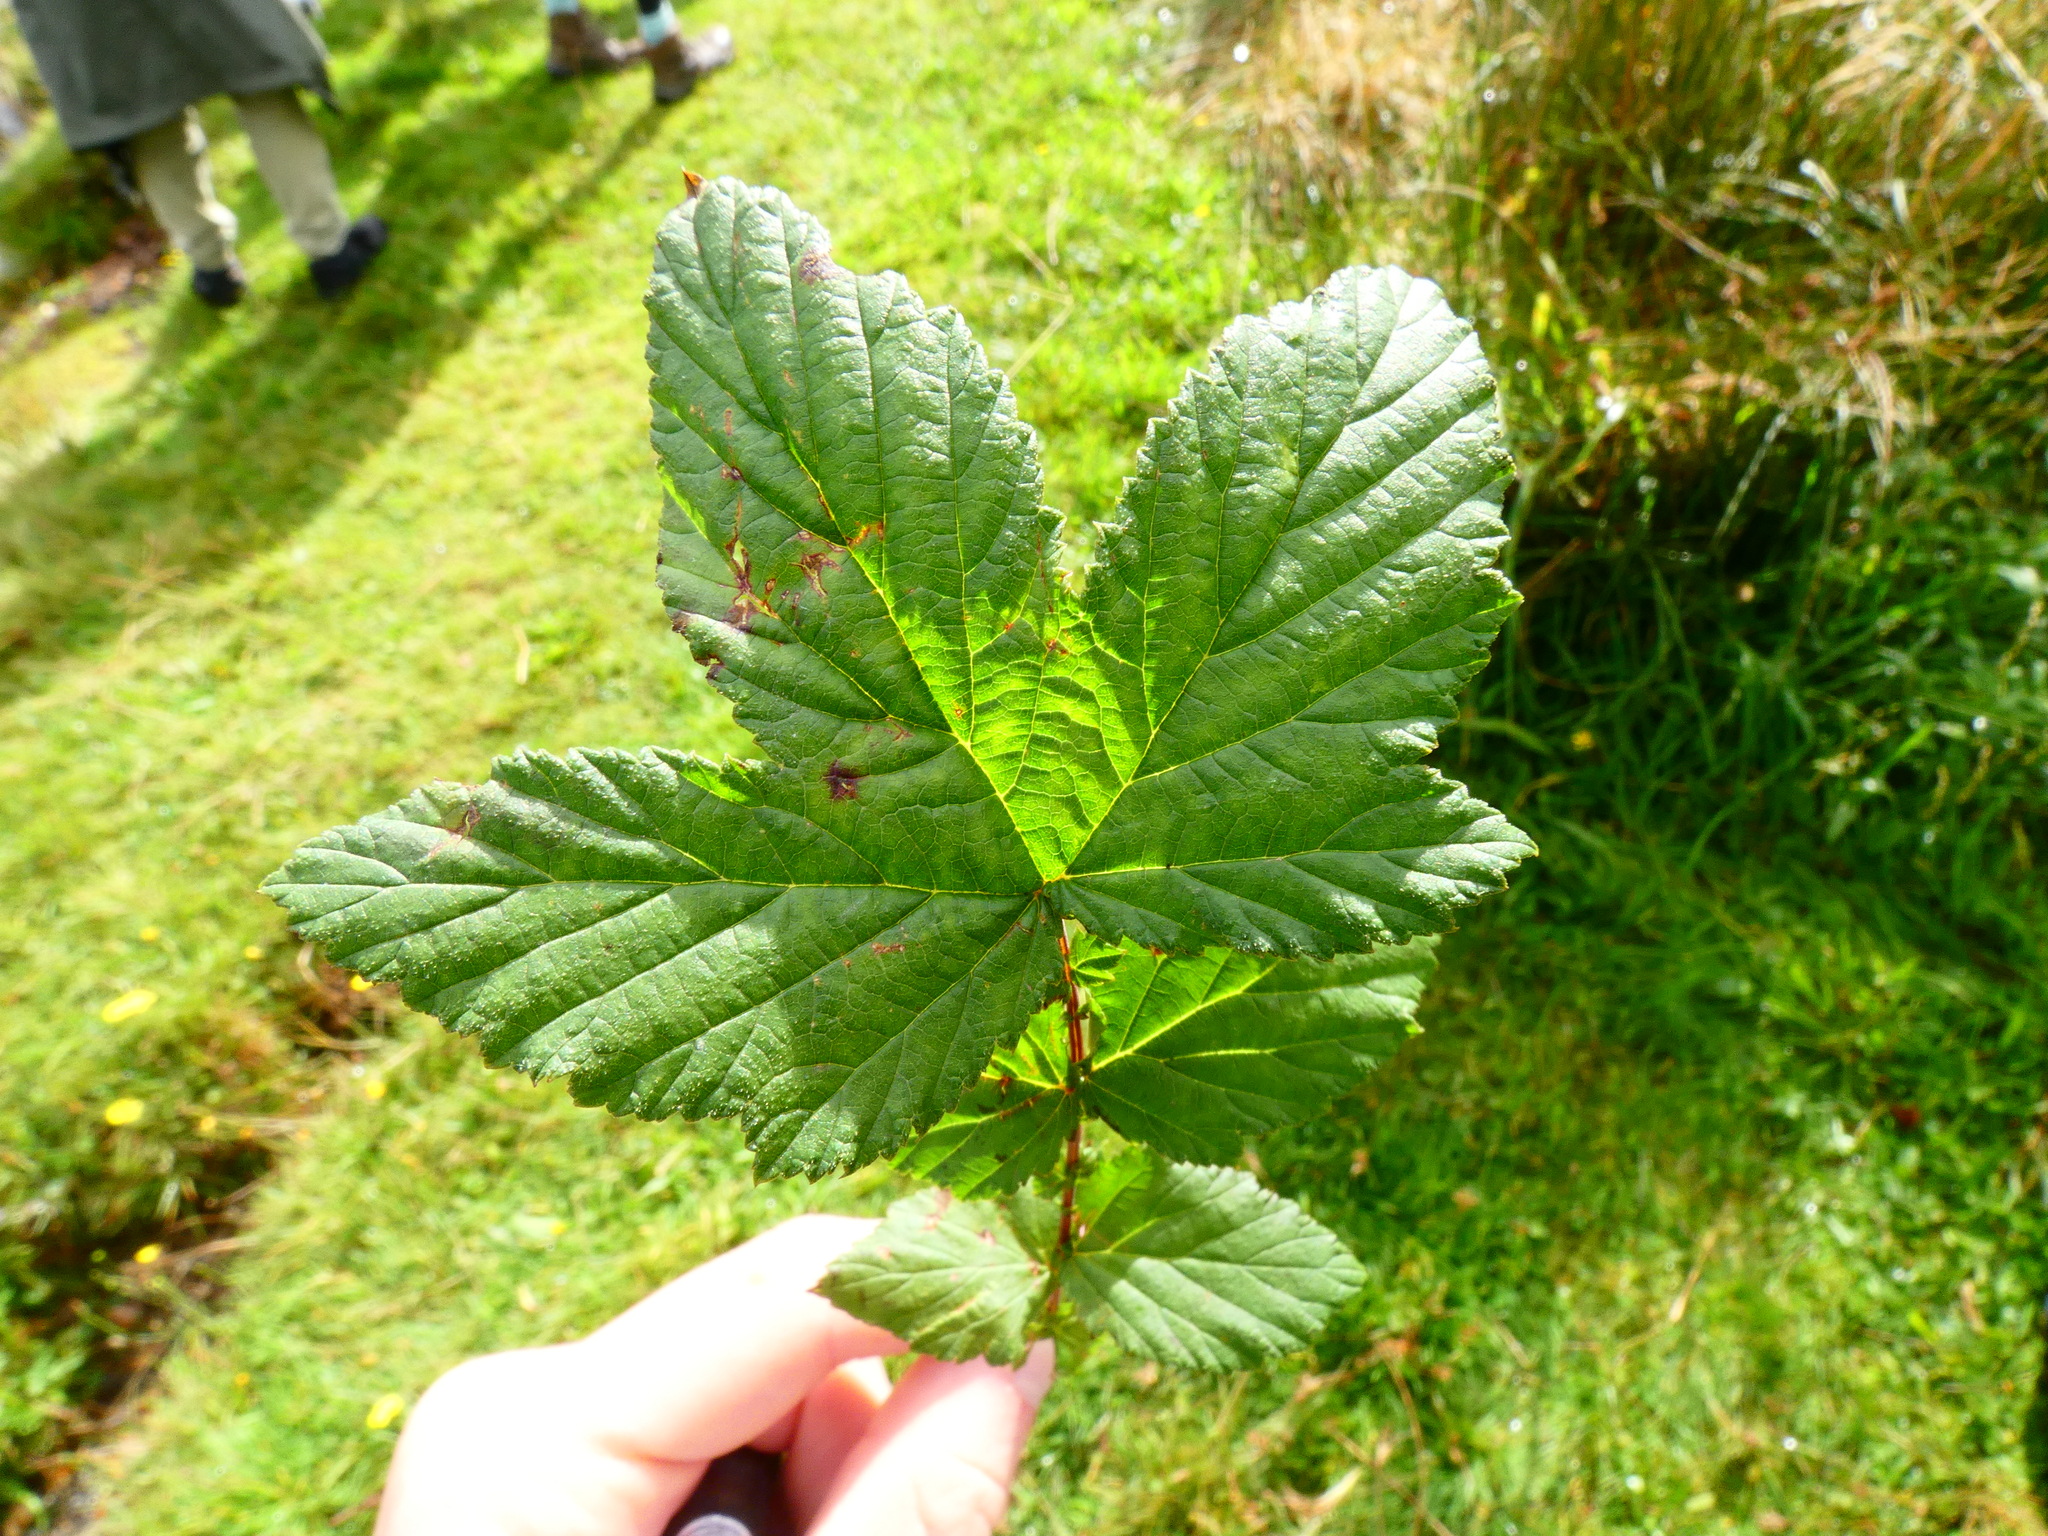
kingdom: Plantae
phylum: Tracheophyta
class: Magnoliopsida
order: Rosales
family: Rosaceae
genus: Filipendula
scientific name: Filipendula ulmaria
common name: Meadowsweet
